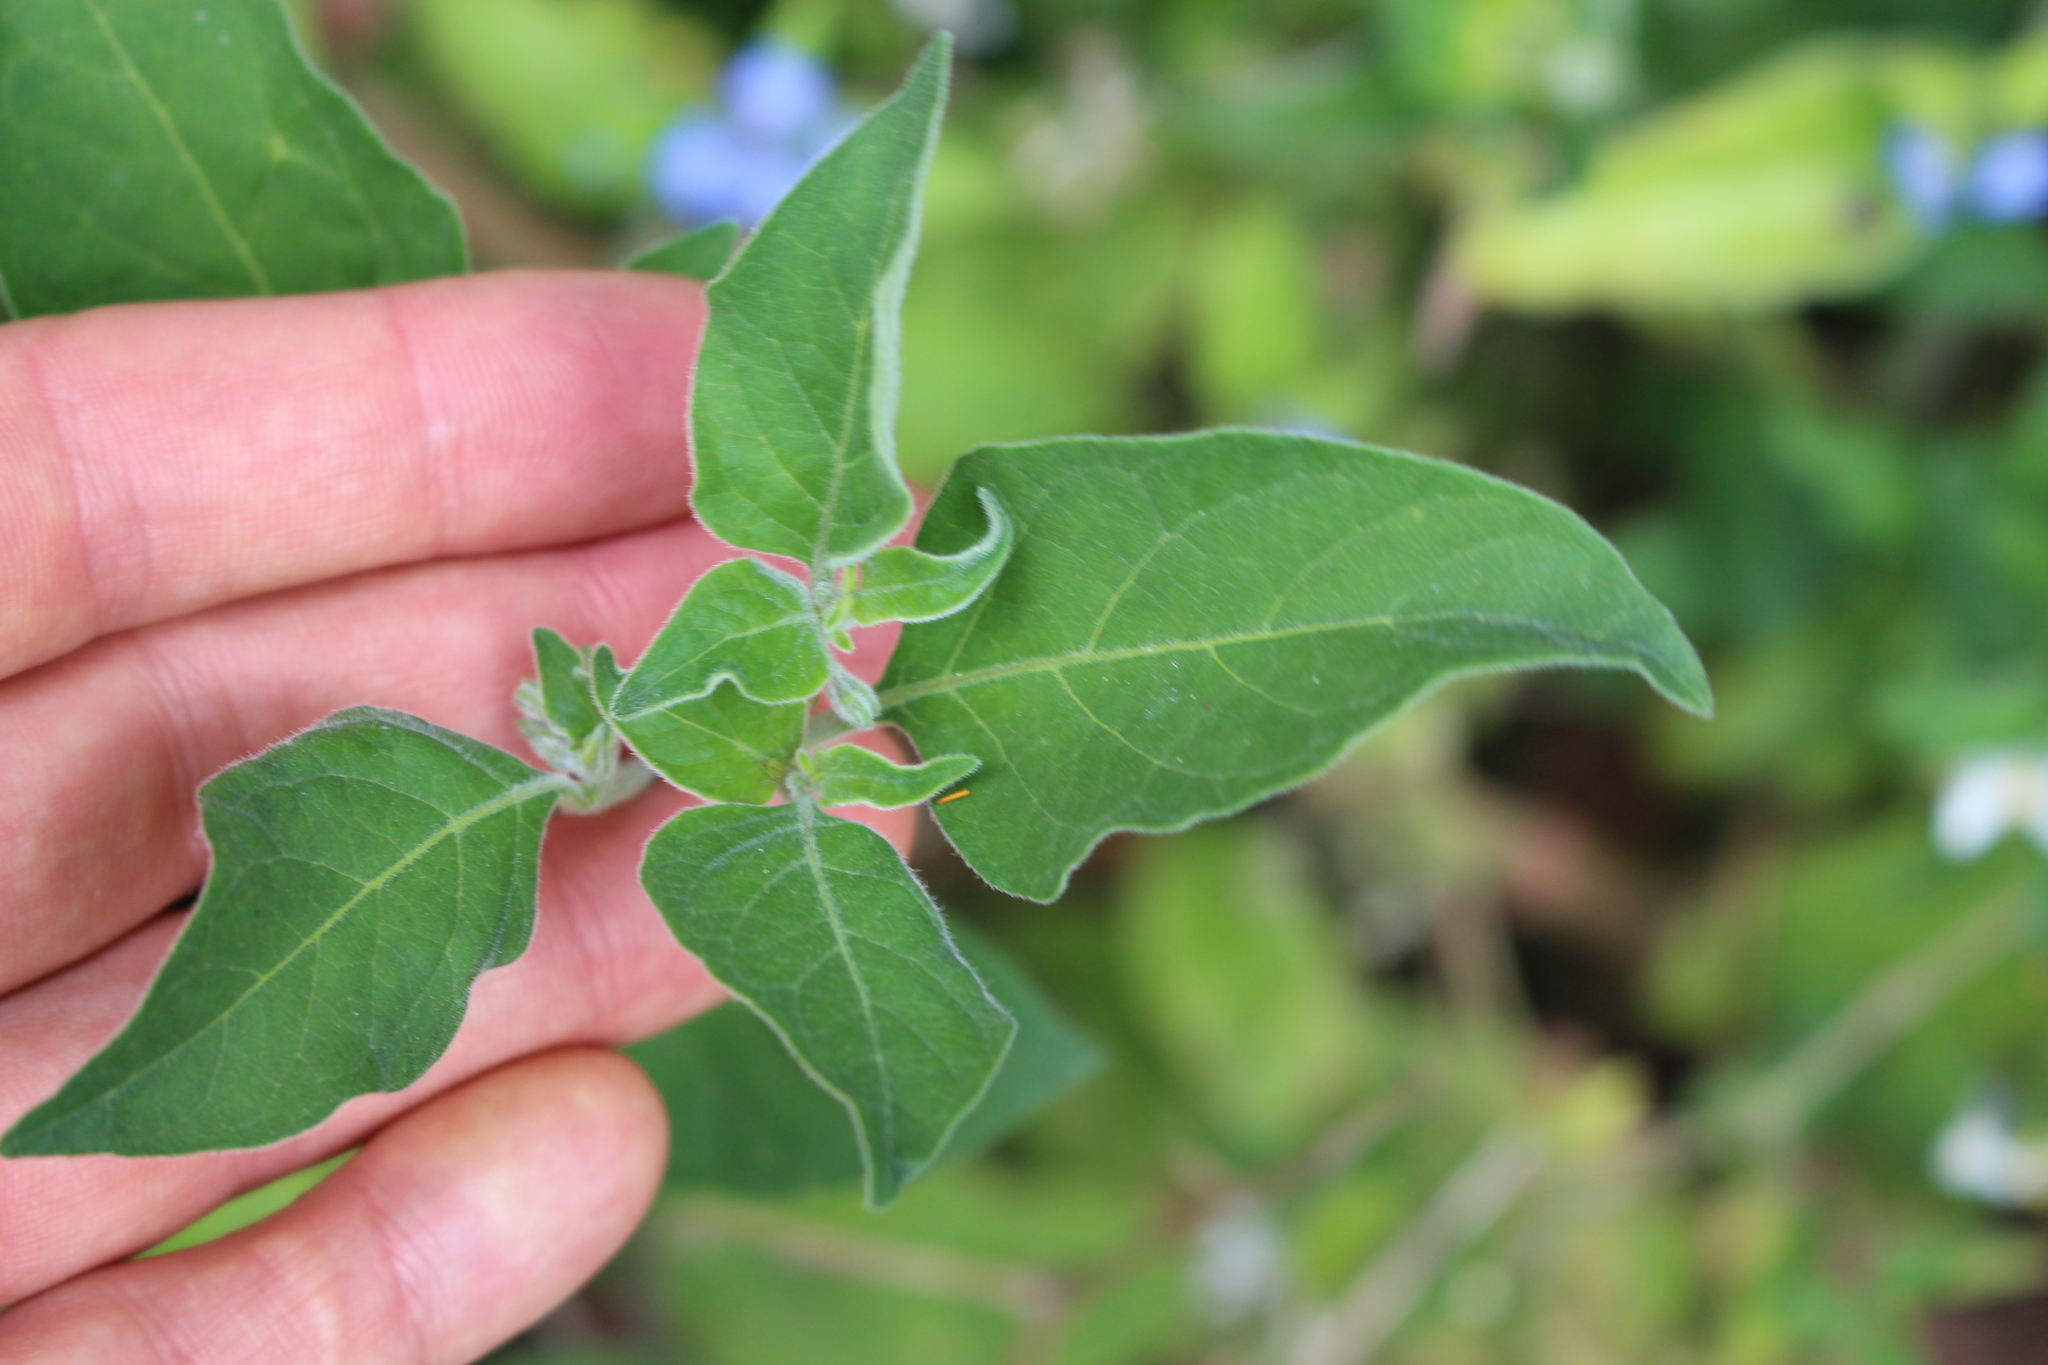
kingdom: Plantae
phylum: Tracheophyta
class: Magnoliopsida
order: Solanales
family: Solanaceae
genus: Solanum
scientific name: Solanum chenopodioides
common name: Tall nightshade
